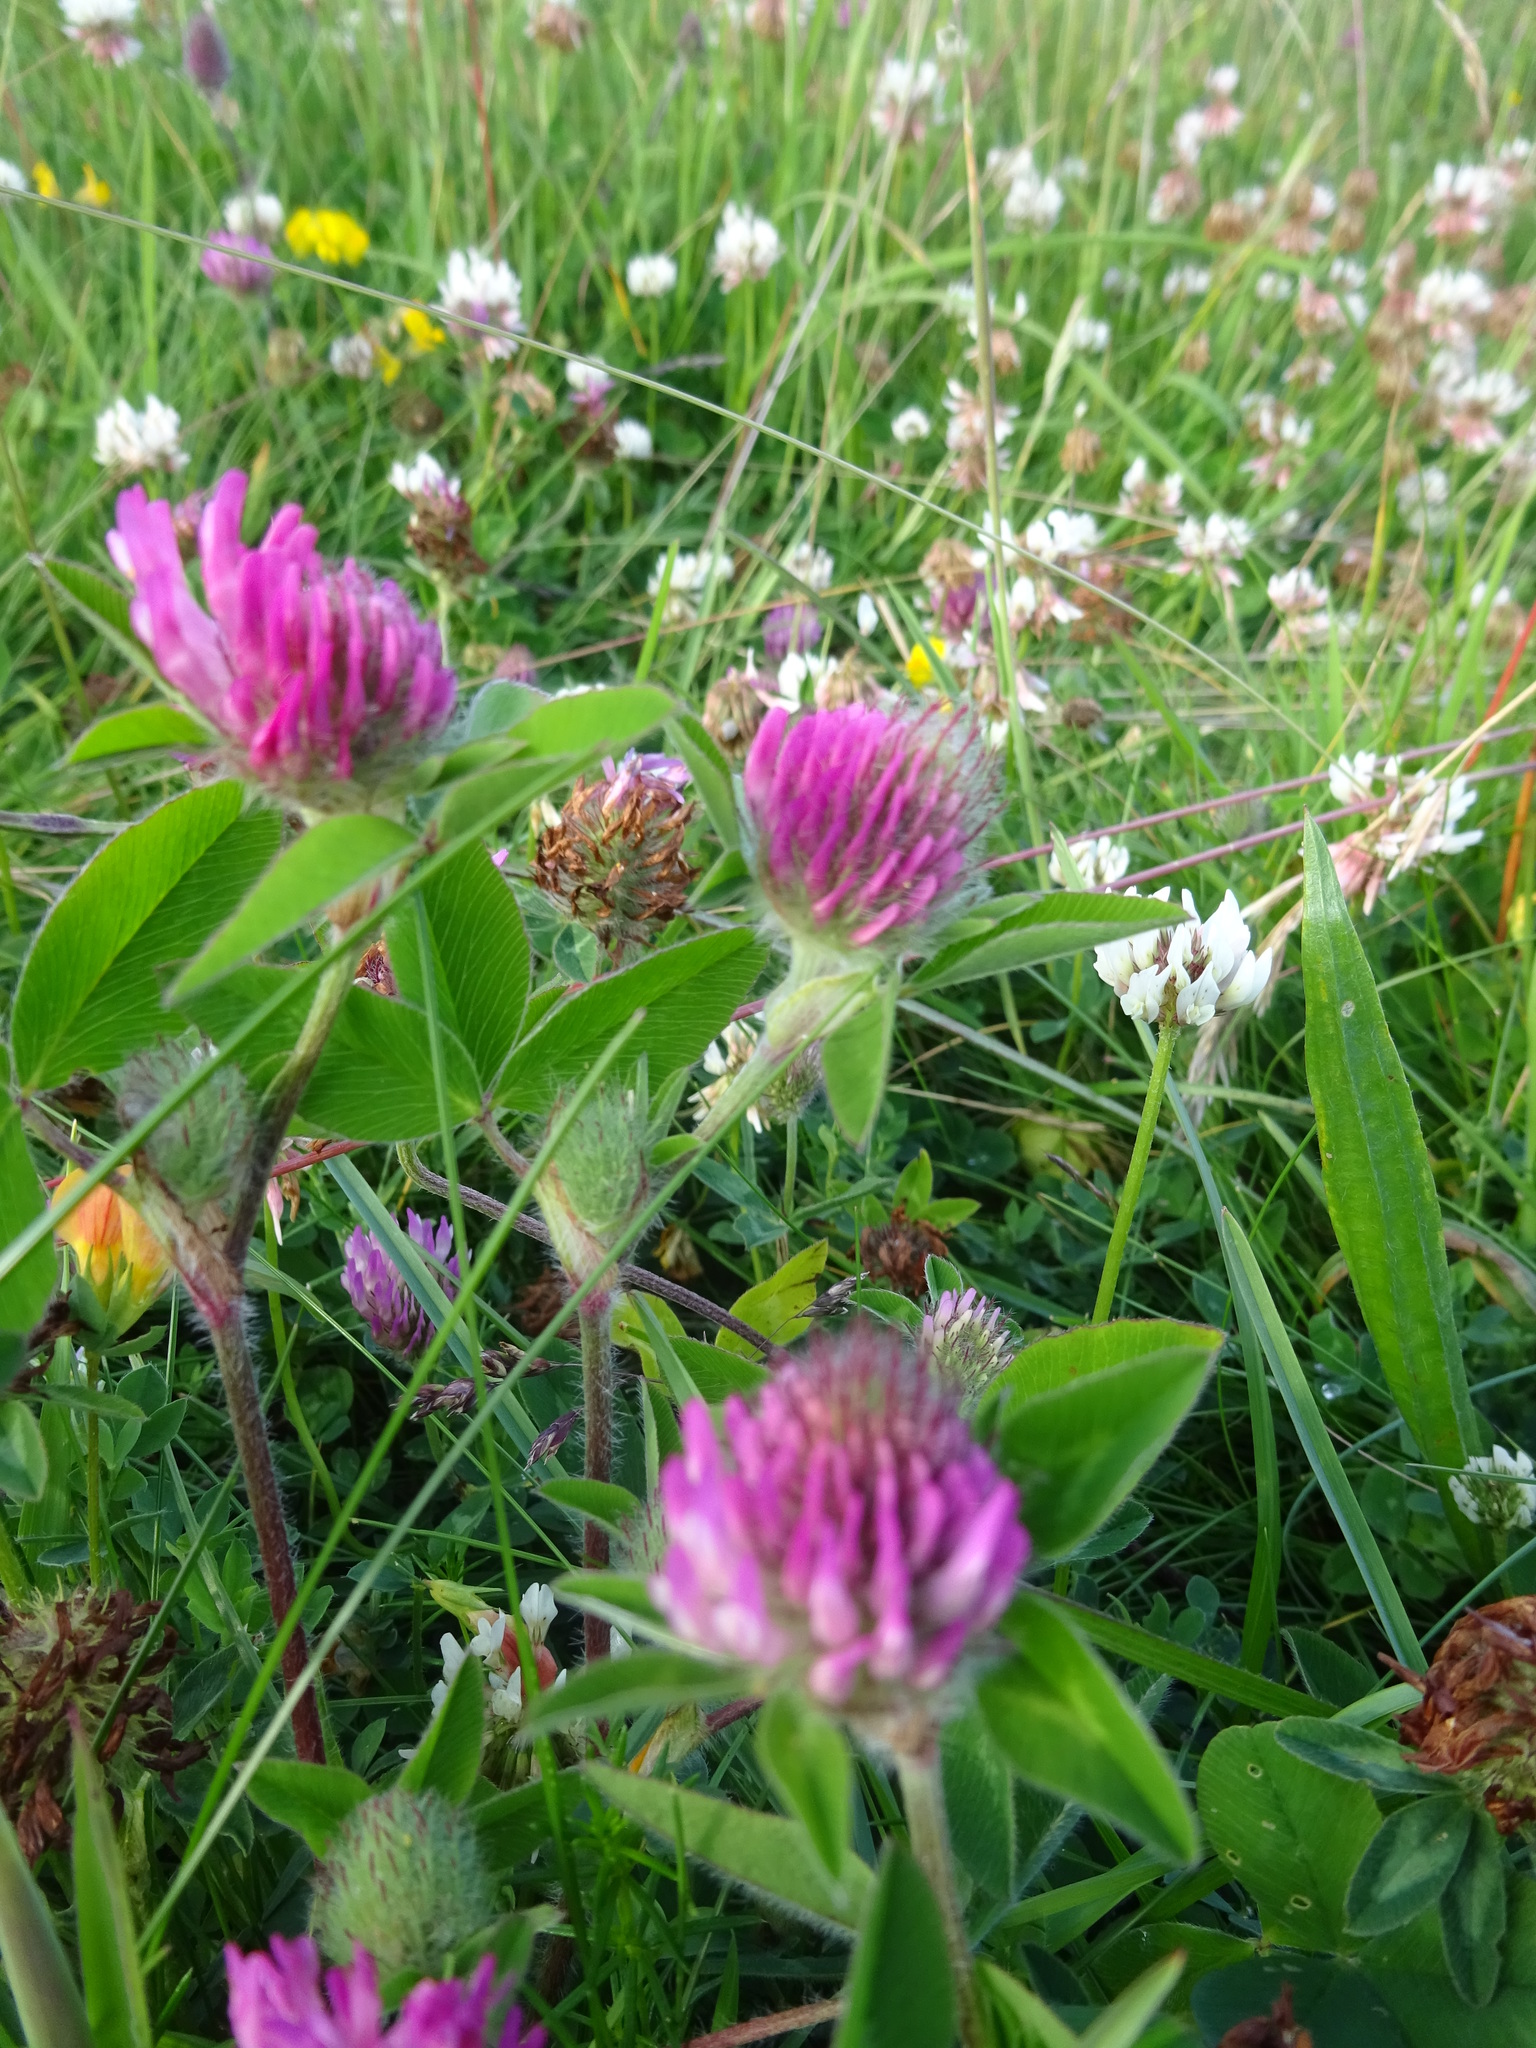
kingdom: Plantae
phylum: Tracheophyta
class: Magnoliopsida
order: Fabales
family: Fabaceae
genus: Trifolium
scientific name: Trifolium pratense
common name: Red clover
